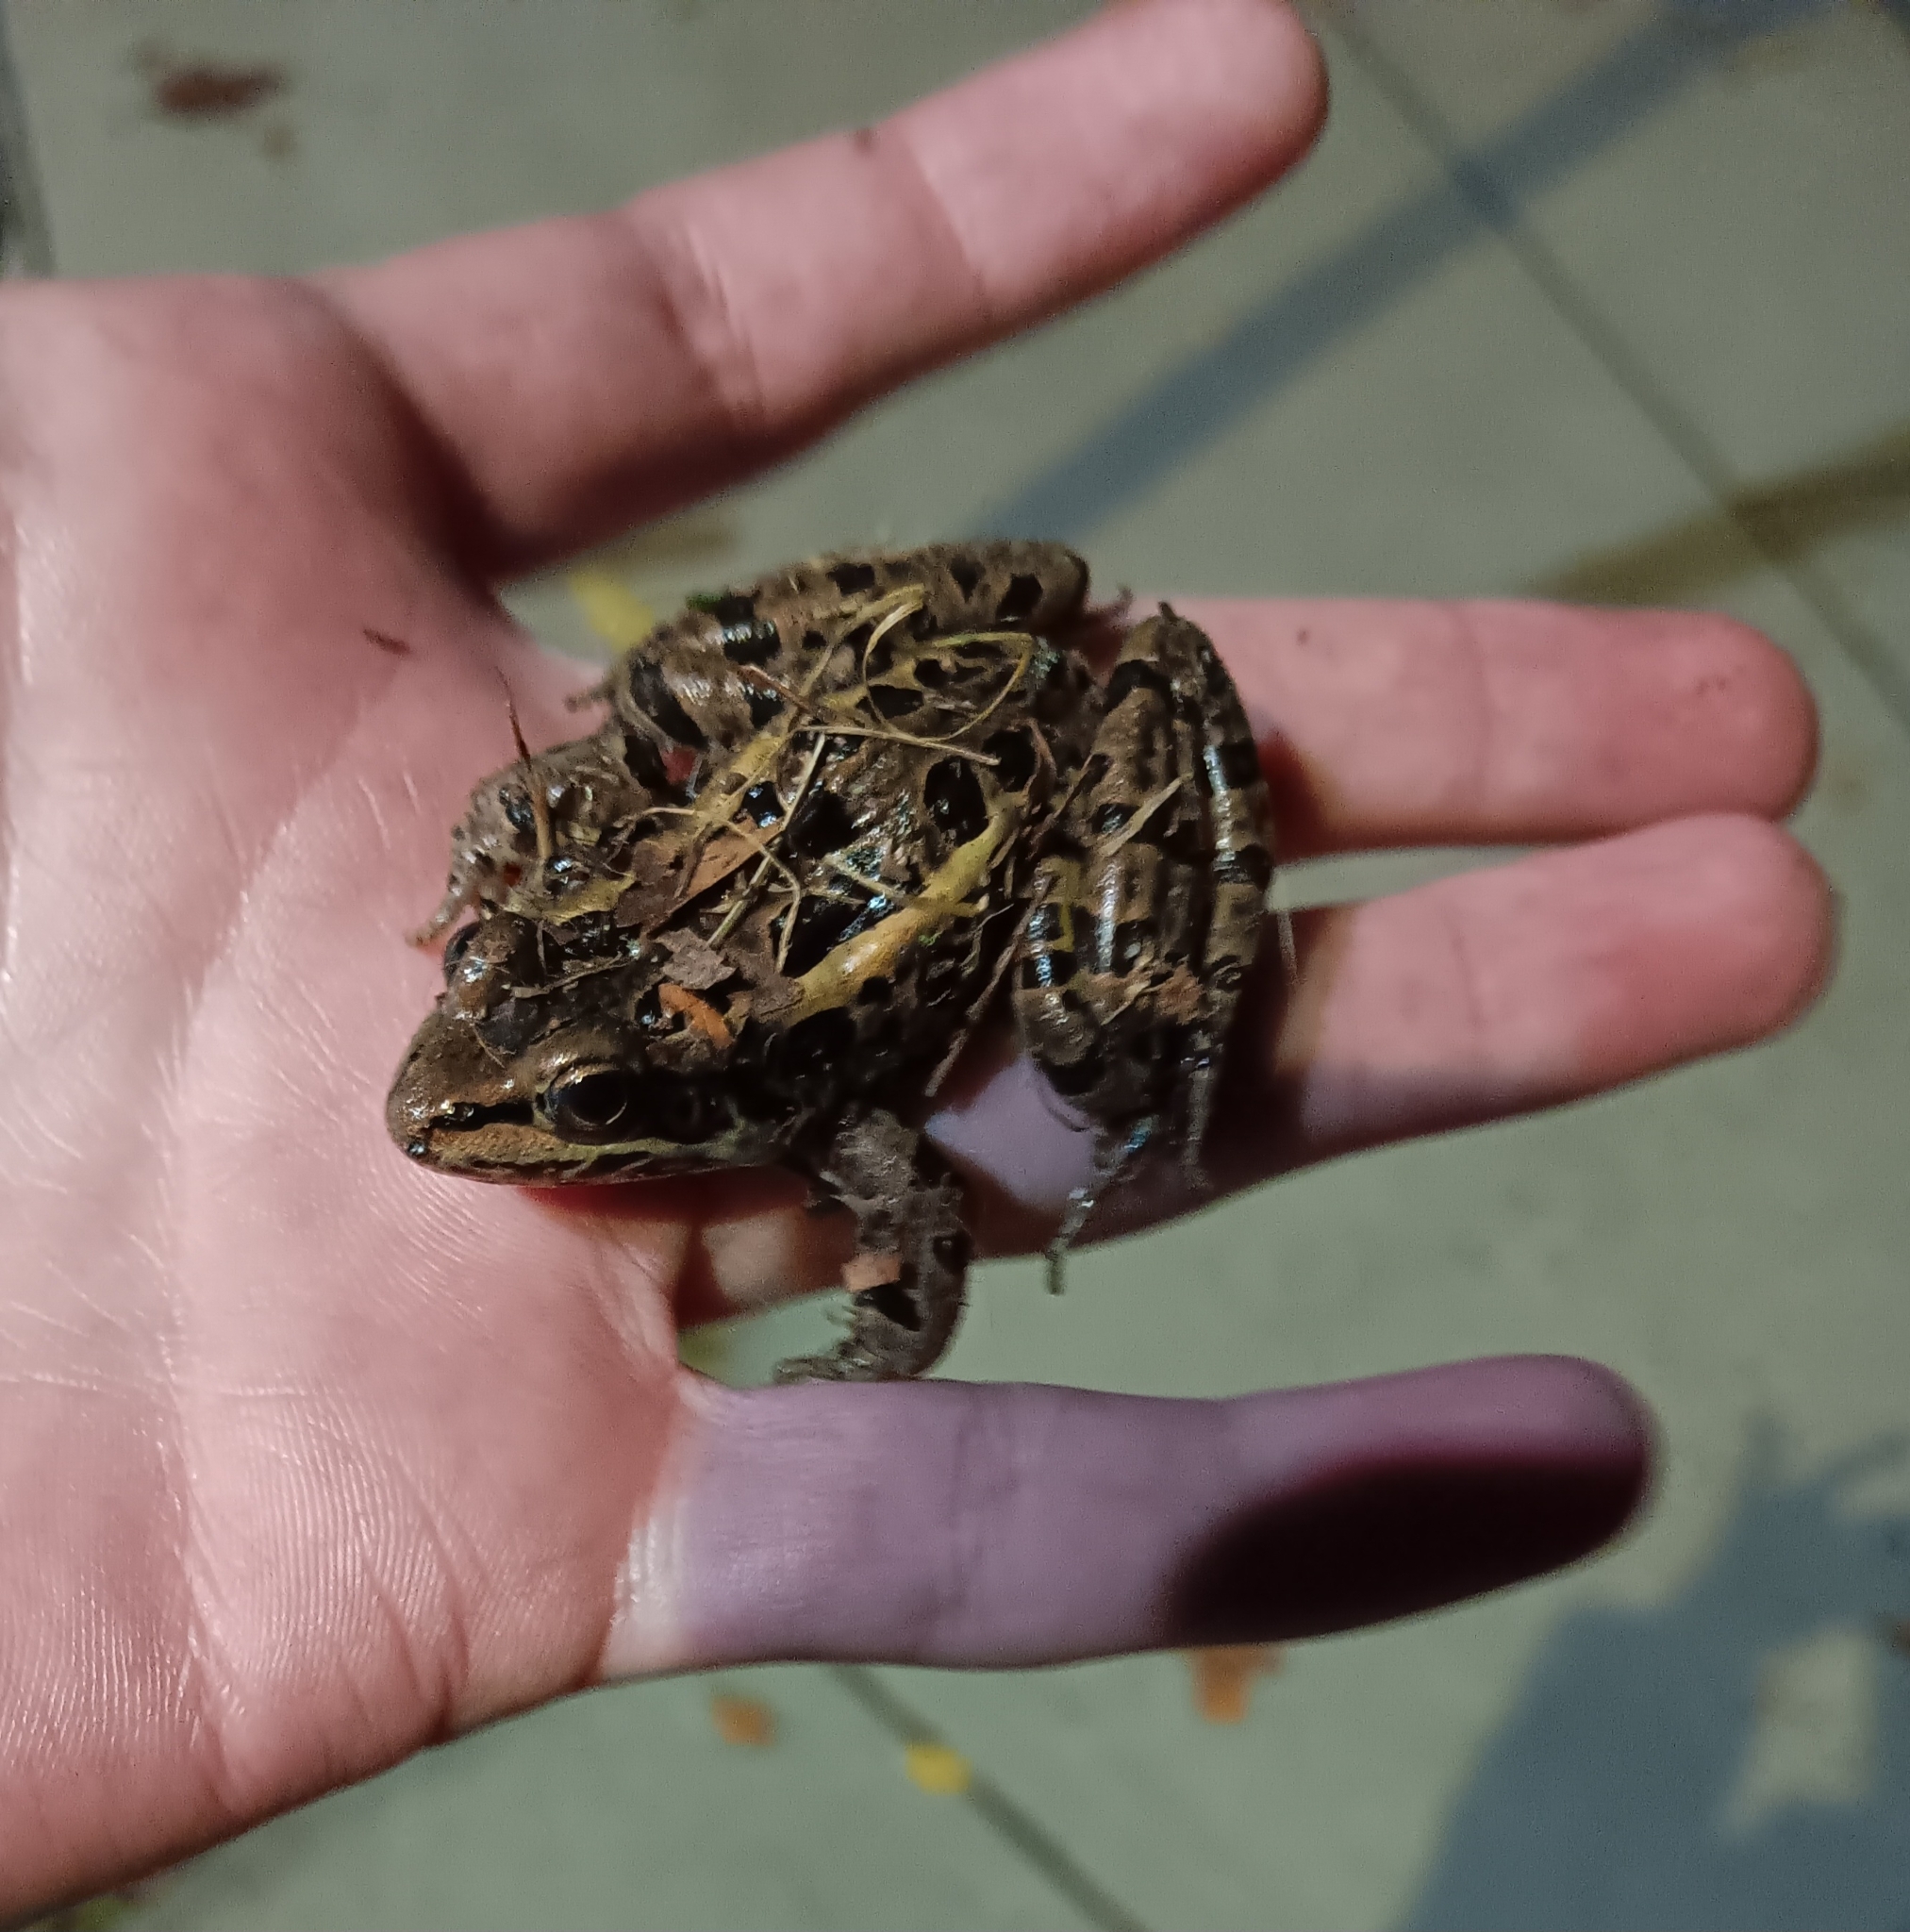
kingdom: Animalia
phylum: Chordata
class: Amphibia
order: Anura
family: Ranidae
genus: Lithobates
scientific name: Lithobates palustris
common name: Pickerel frog
